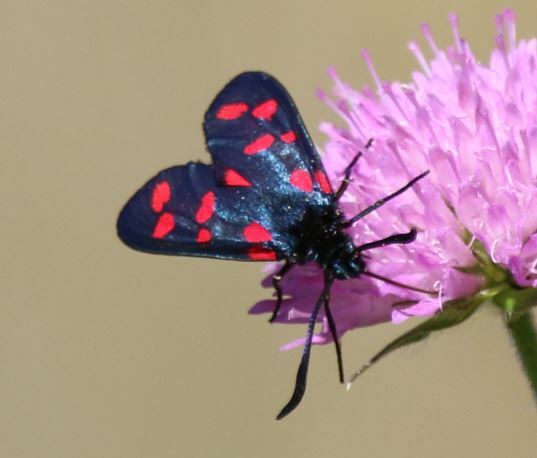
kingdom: Animalia
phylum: Arthropoda
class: Insecta
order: Lepidoptera
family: Zygaenidae
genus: Zygaena
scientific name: Zygaena filipendulae
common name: Six-spot burnet
